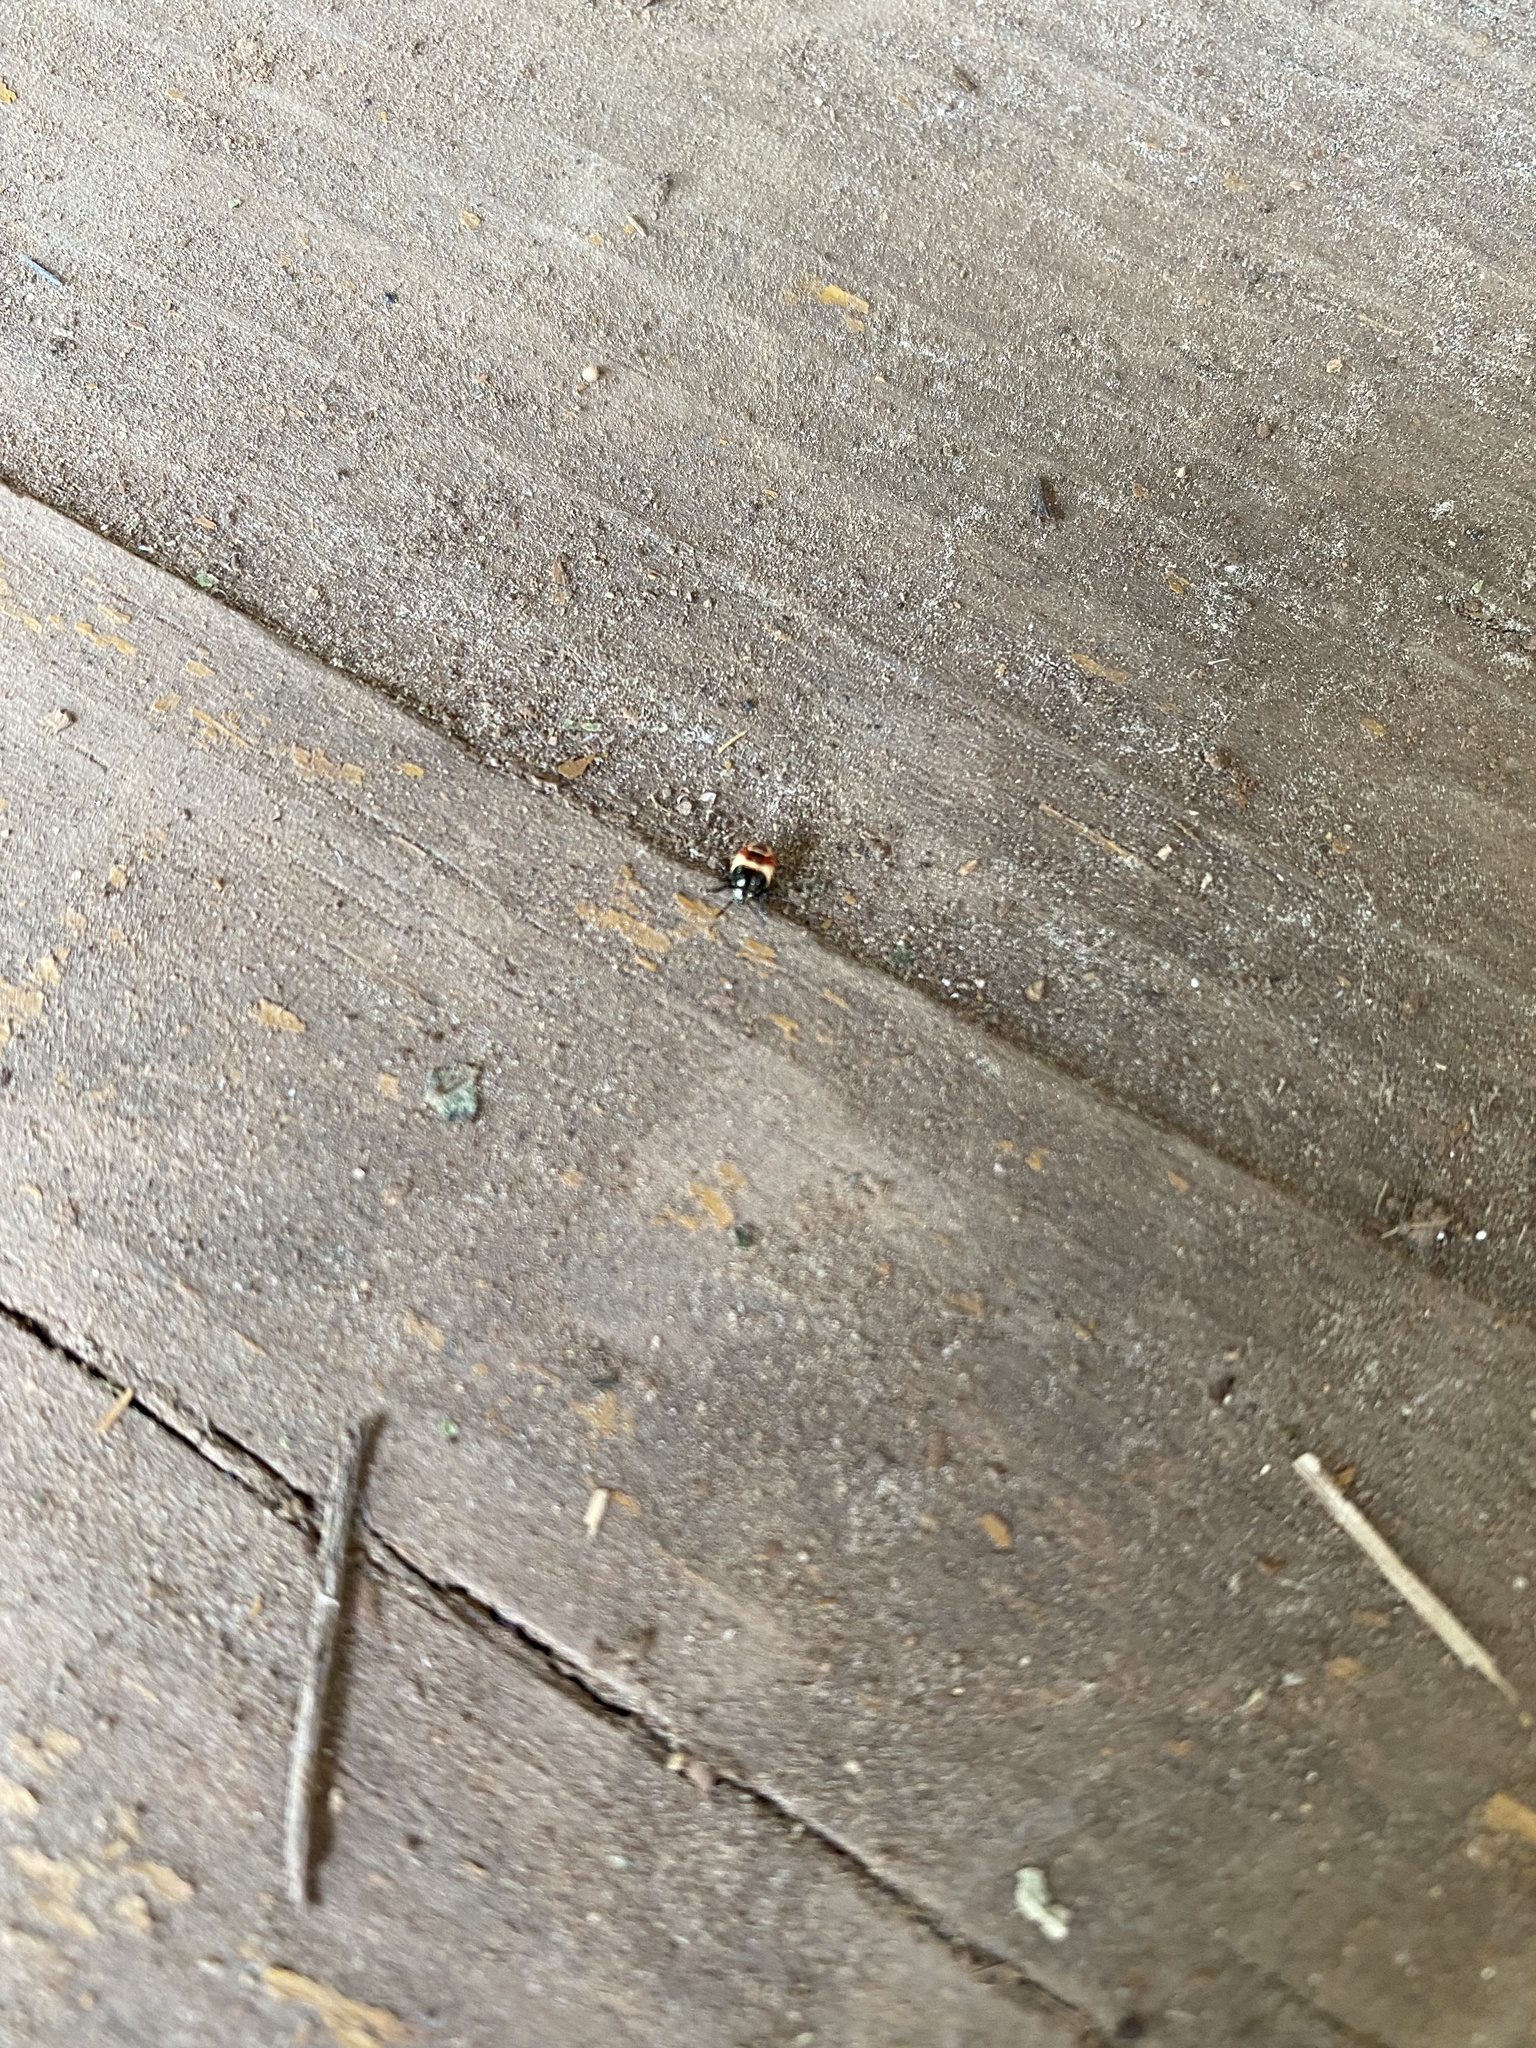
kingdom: Animalia
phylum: Arthropoda
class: Insecta
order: Hemiptera
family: Pentatomidae
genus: Carpocoris
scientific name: Carpocoris
